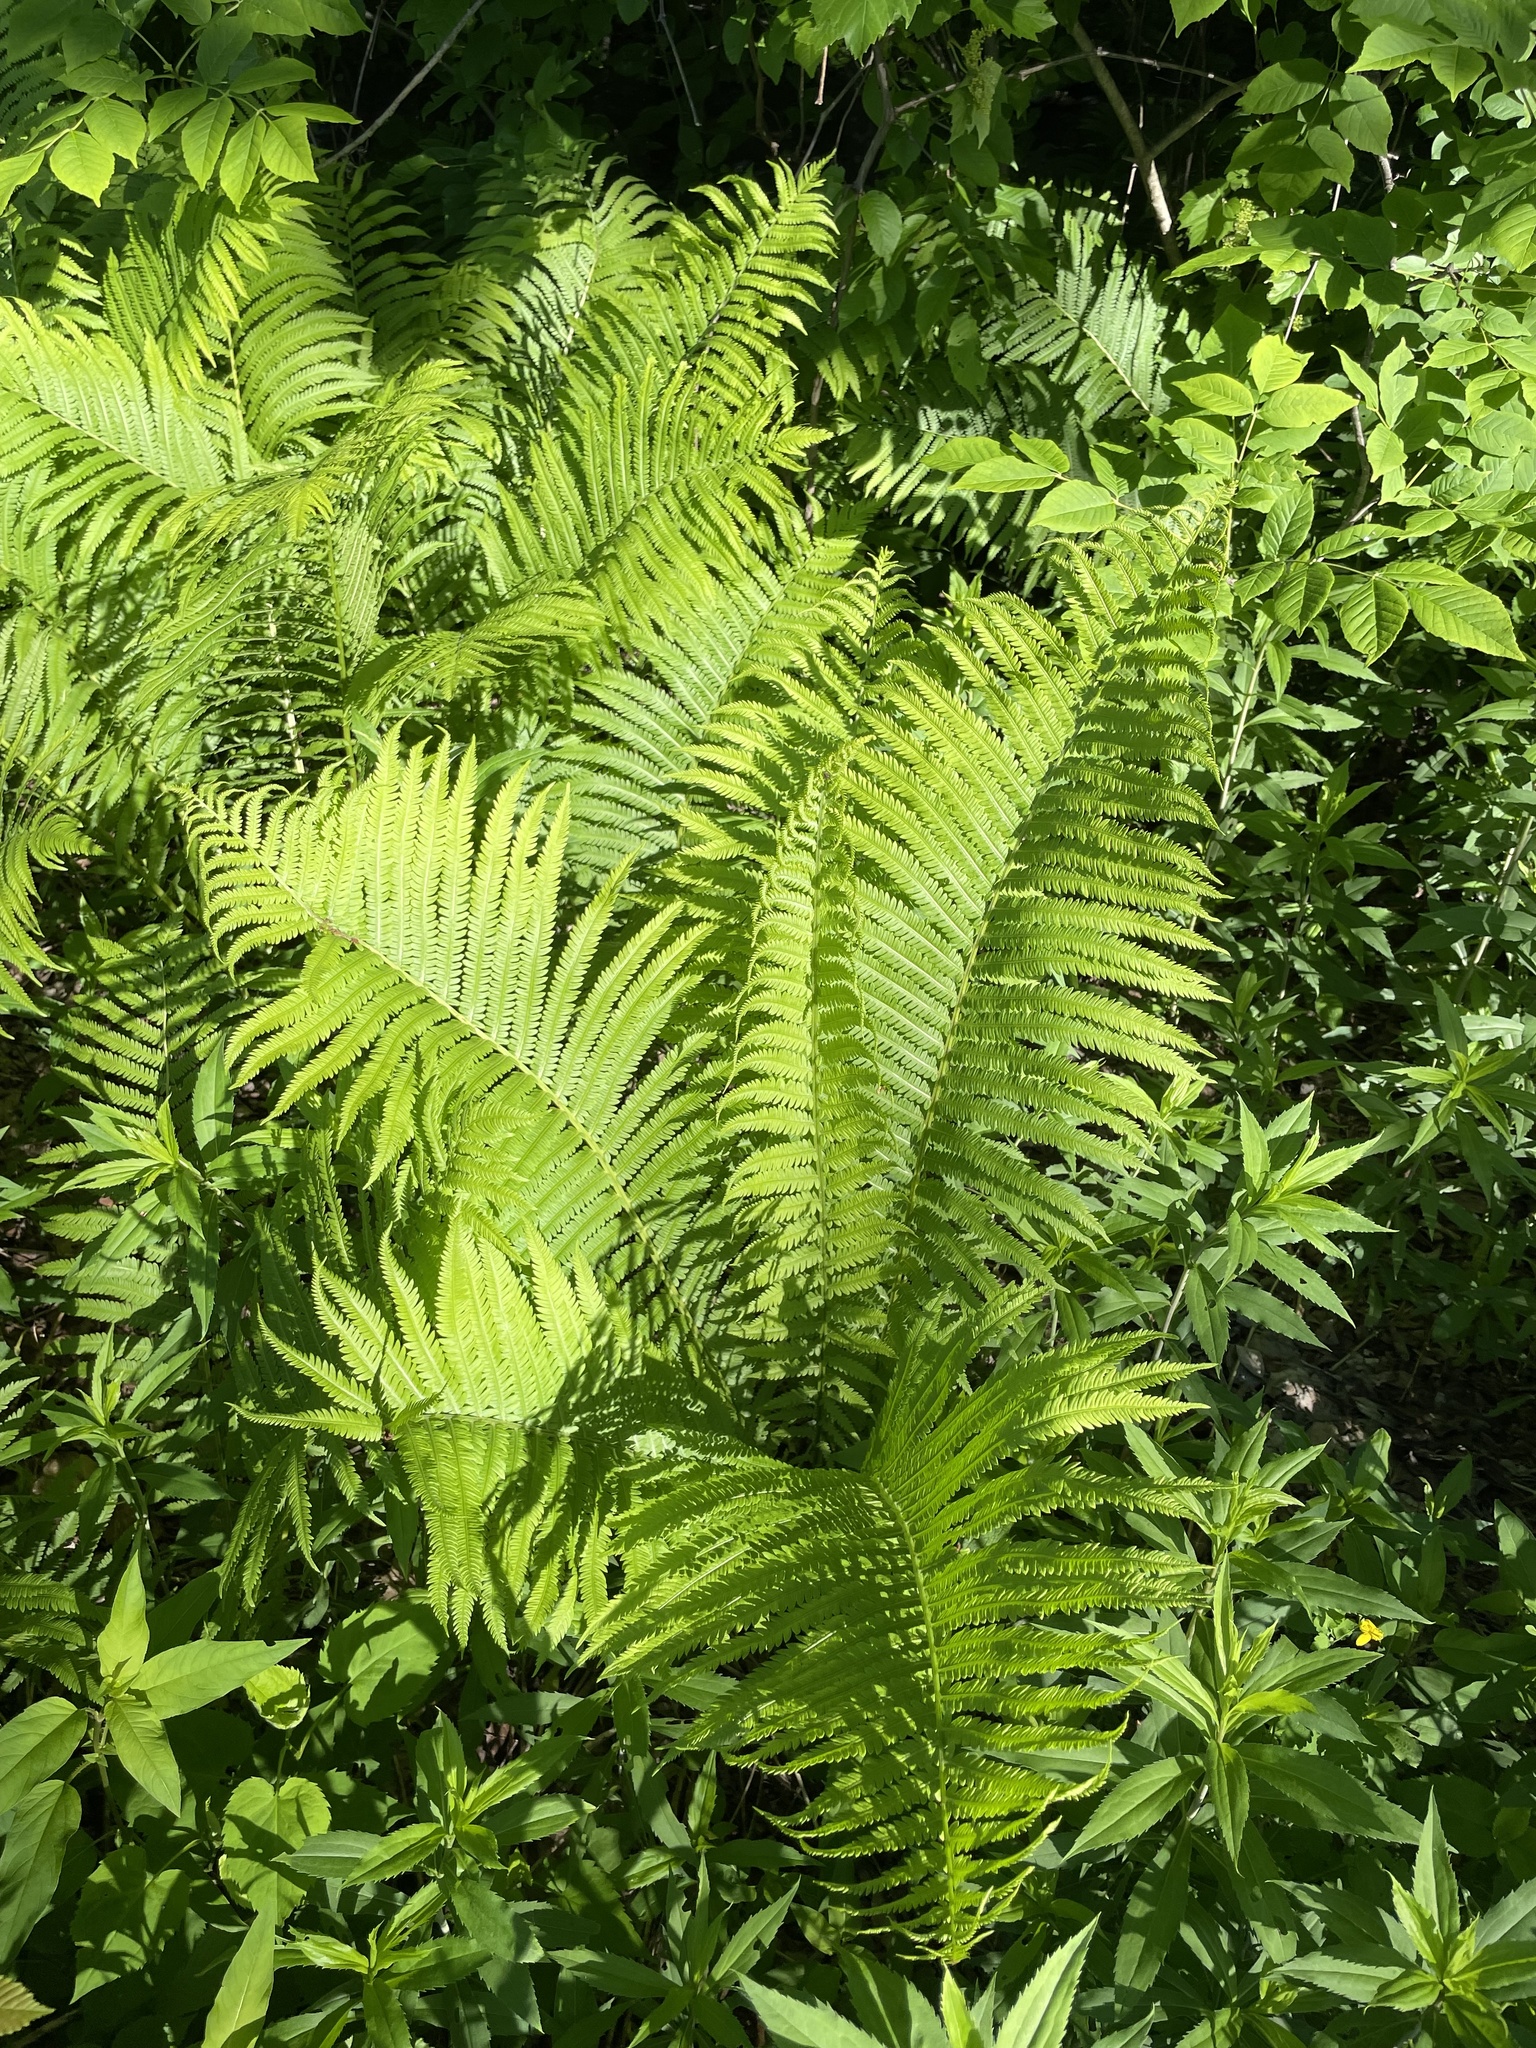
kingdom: Plantae
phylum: Tracheophyta
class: Polypodiopsida
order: Polypodiales
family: Onocleaceae
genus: Matteuccia
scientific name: Matteuccia struthiopteris
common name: Ostrich fern
